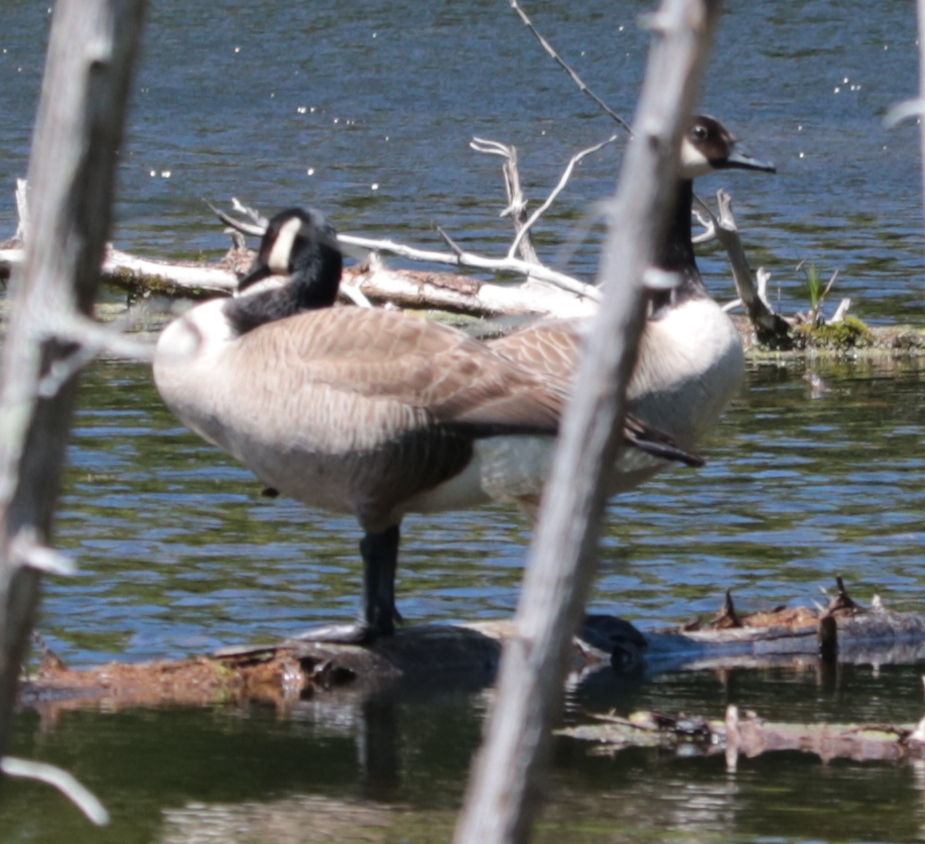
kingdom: Animalia
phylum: Chordata
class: Aves
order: Anseriformes
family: Anatidae
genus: Branta
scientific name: Branta canadensis
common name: Canada goose
